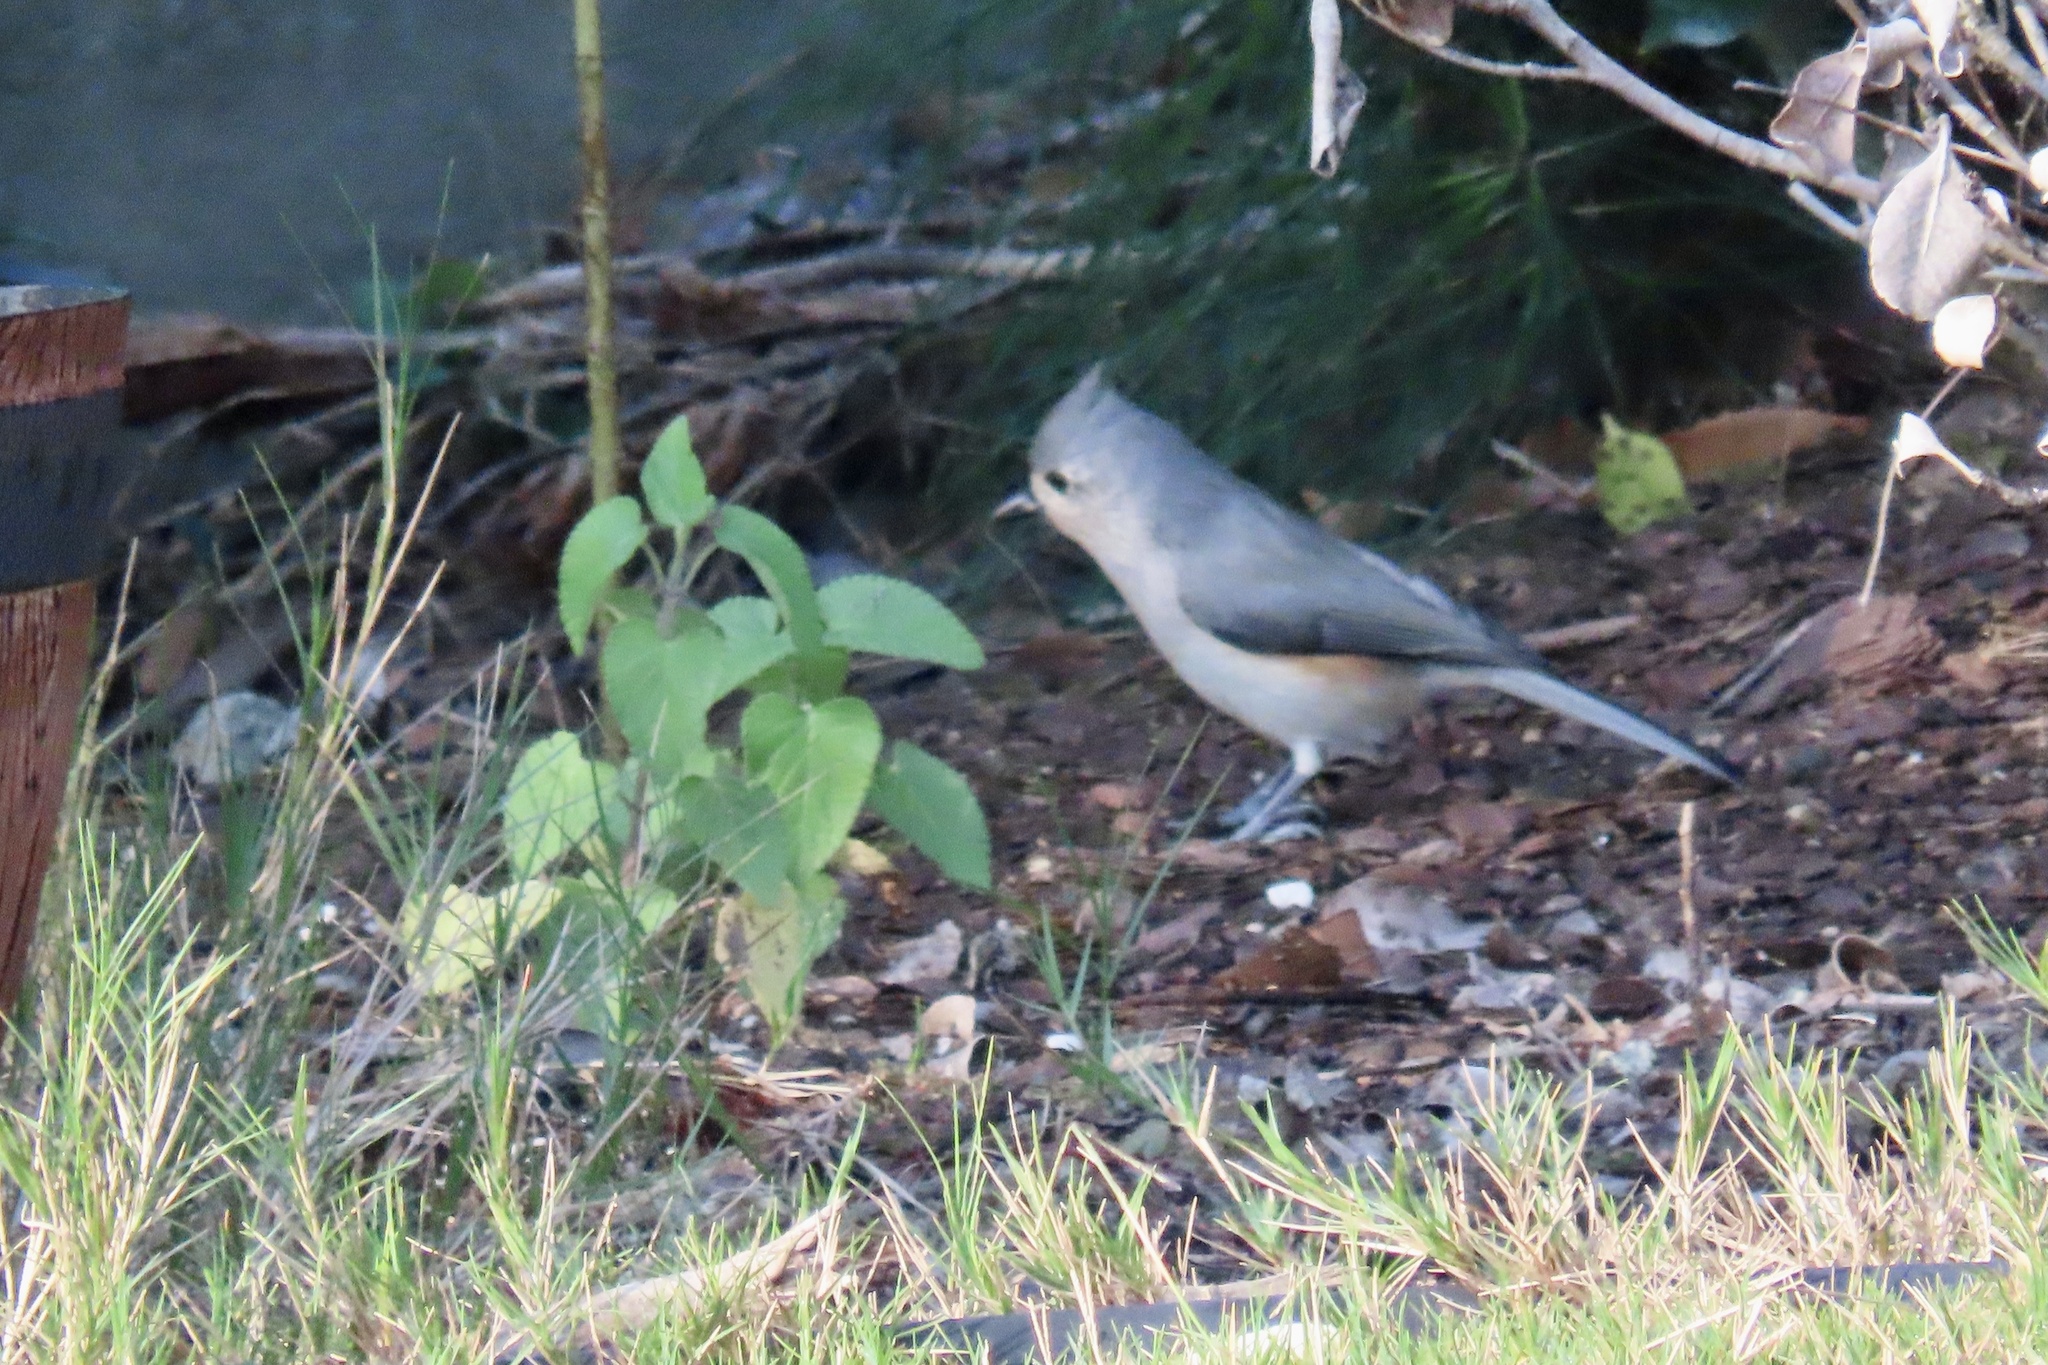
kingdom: Animalia
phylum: Chordata
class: Aves
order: Passeriformes
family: Paridae
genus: Baeolophus
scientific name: Baeolophus bicolor
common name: Tufted titmouse
